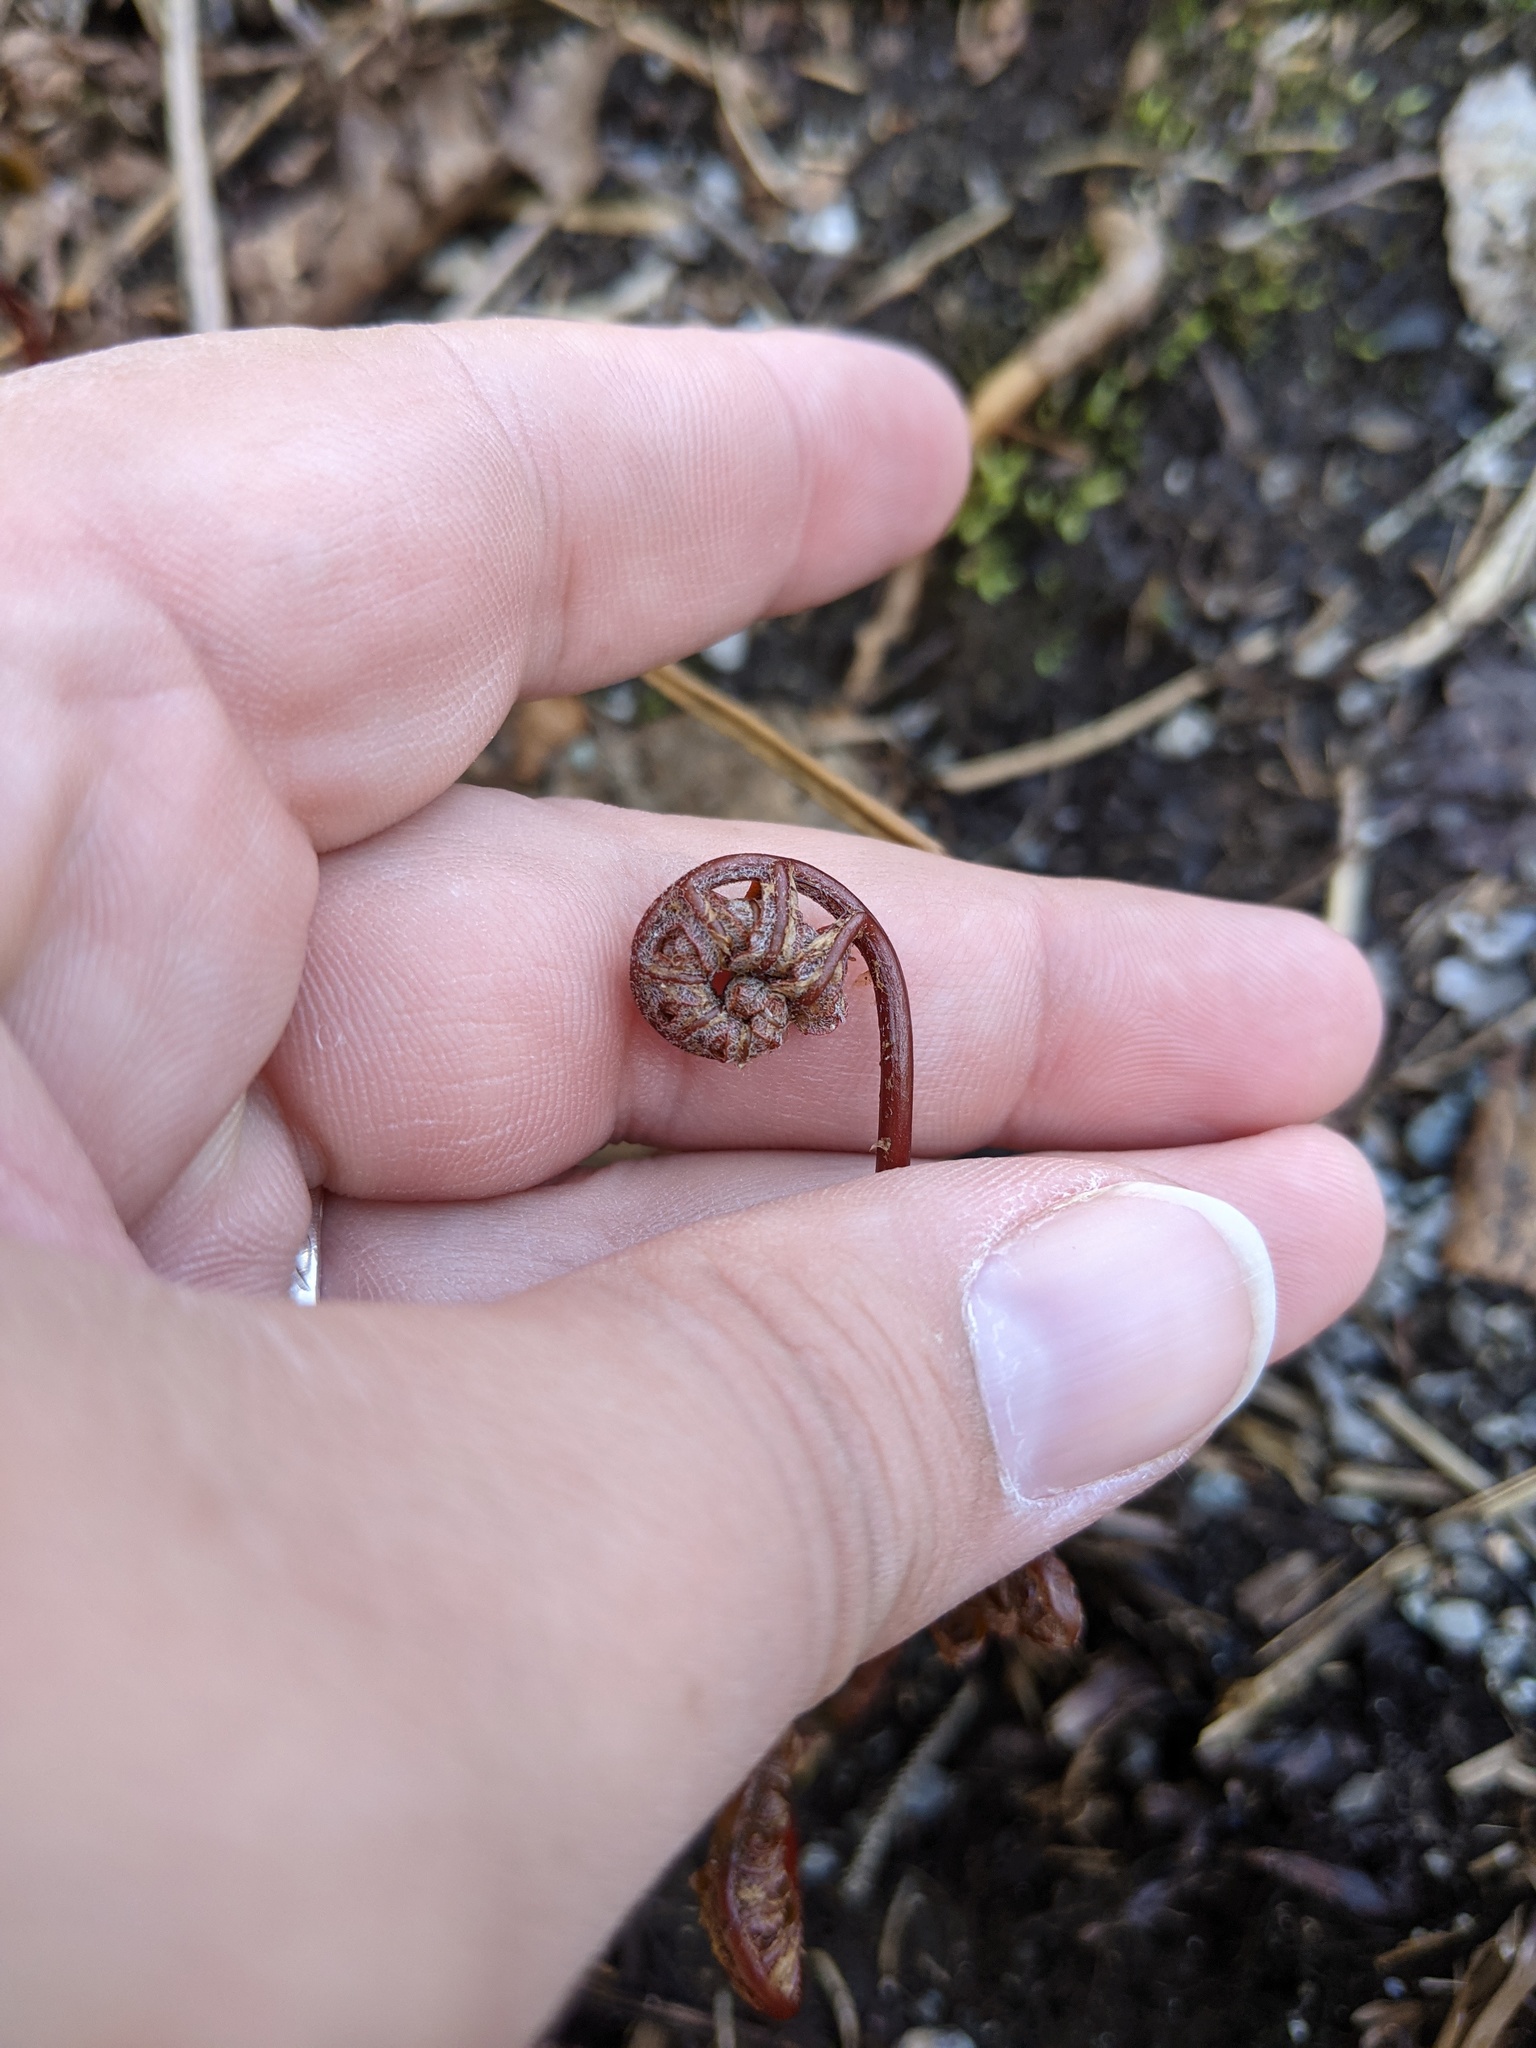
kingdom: Plantae
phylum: Tracheophyta
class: Polypodiopsida
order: Polypodiales
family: Onocleaceae
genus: Onoclea
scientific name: Onoclea sensibilis
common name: Sensitive fern
